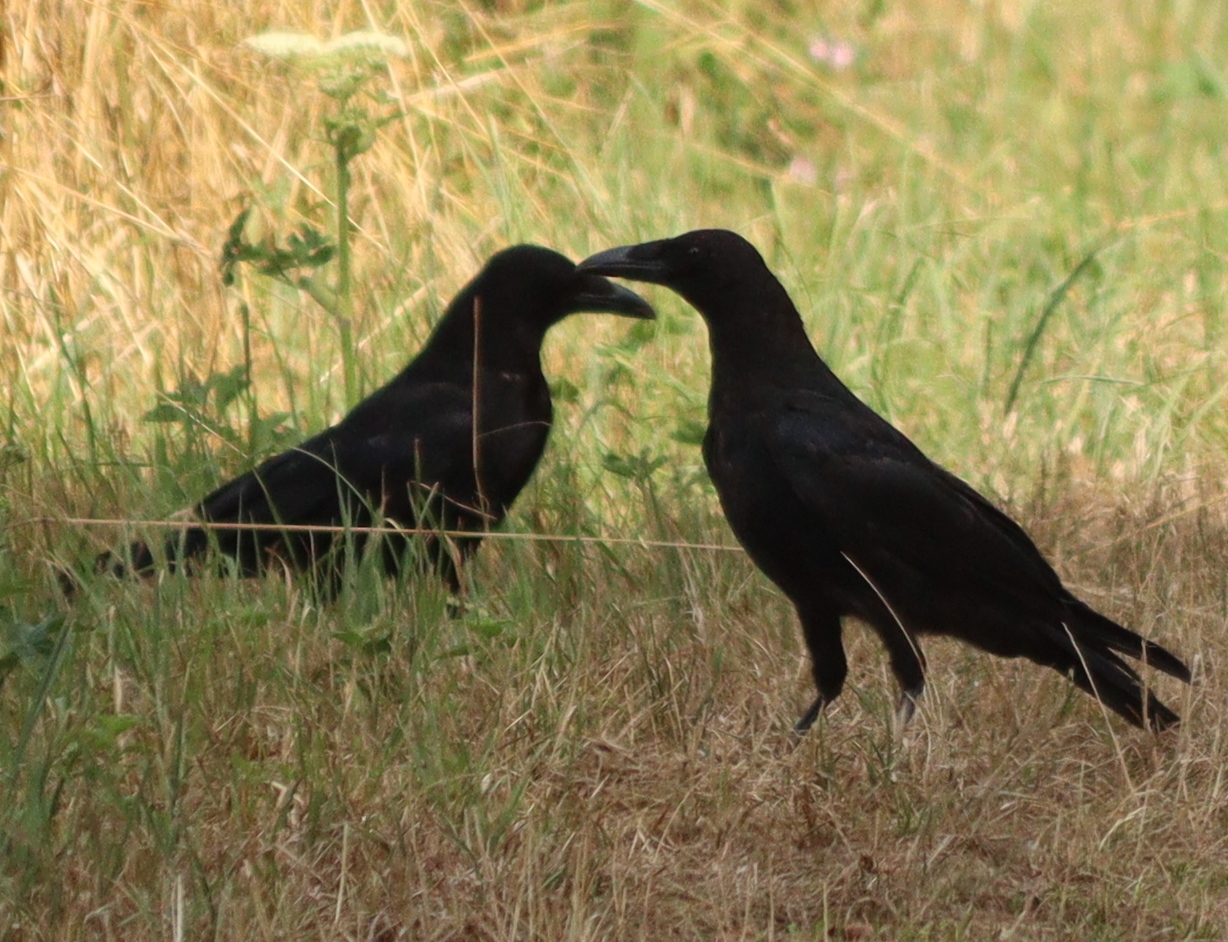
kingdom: Animalia
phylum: Chordata
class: Aves
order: Passeriformes
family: Corvidae
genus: Corvus
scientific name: Corvus corone
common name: Carrion crow
